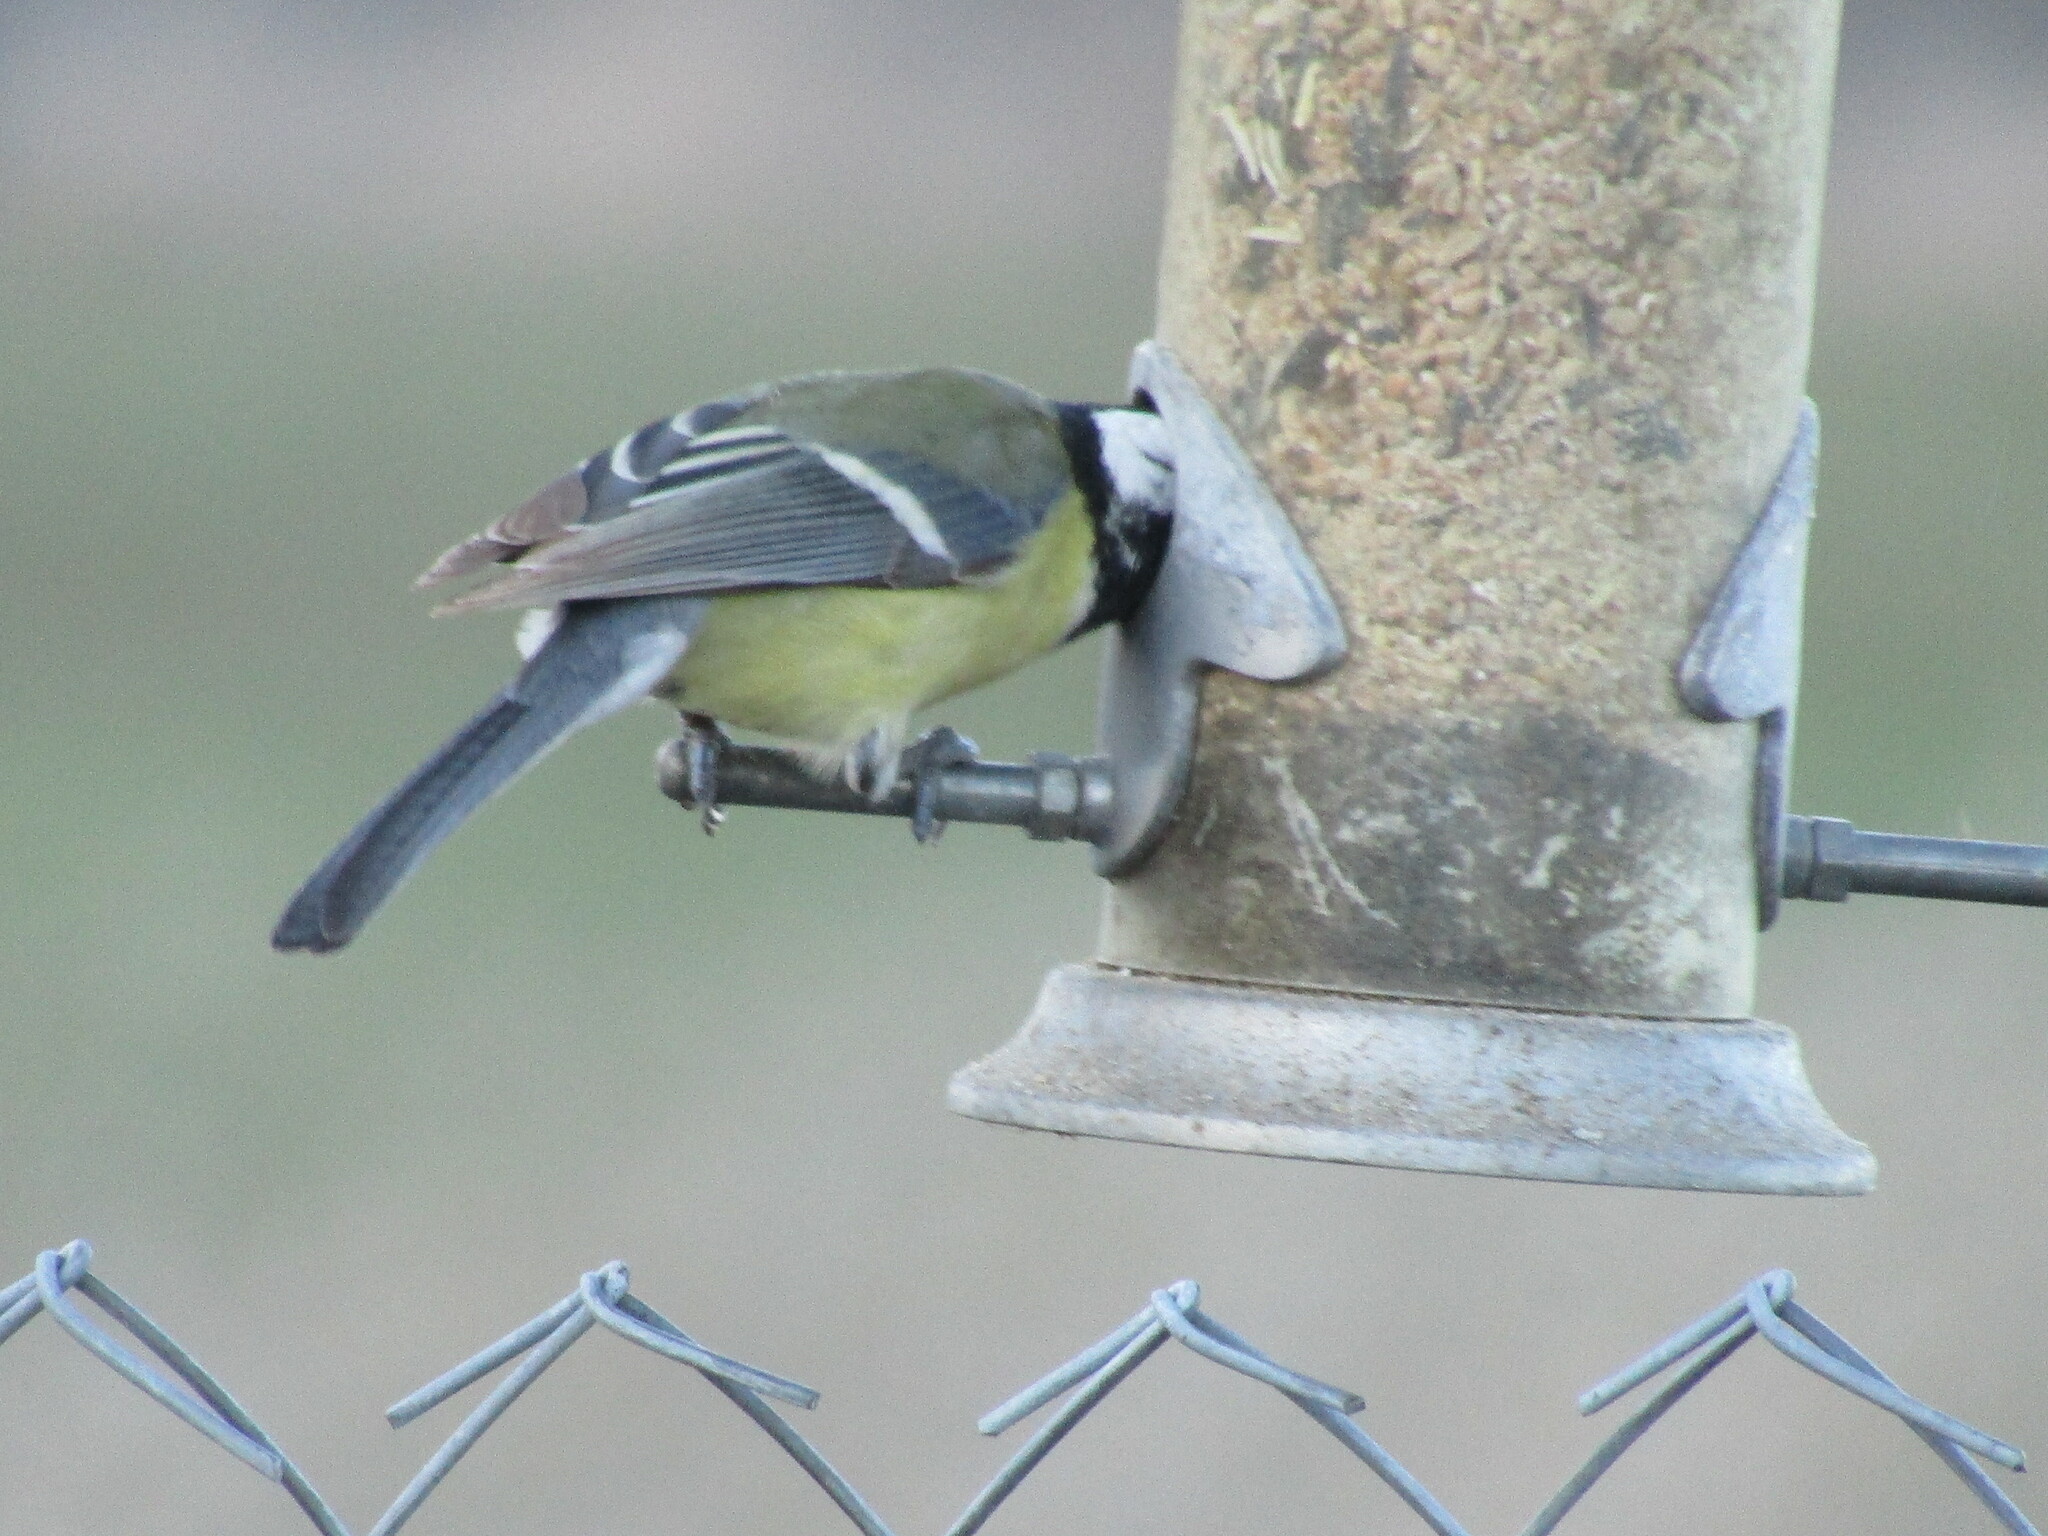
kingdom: Animalia
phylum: Chordata
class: Aves
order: Passeriformes
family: Paridae
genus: Parus
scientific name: Parus major
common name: Great tit
